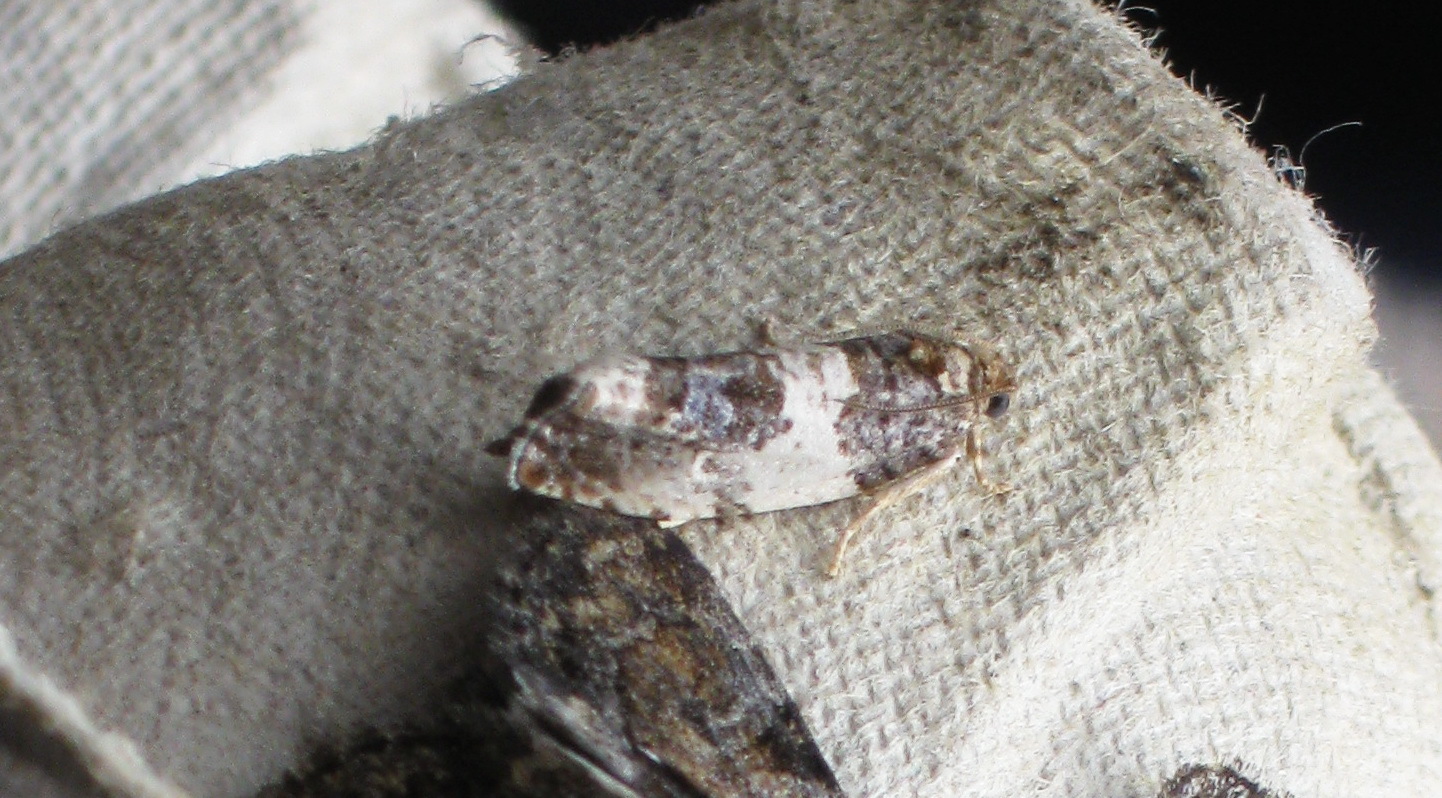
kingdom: Animalia
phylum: Arthropoda
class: Insecta
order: Lepidoptera
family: Tortricidae
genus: Pseudosciaphila
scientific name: Pseudosciaphila duplex
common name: Poplar leafroller moth
